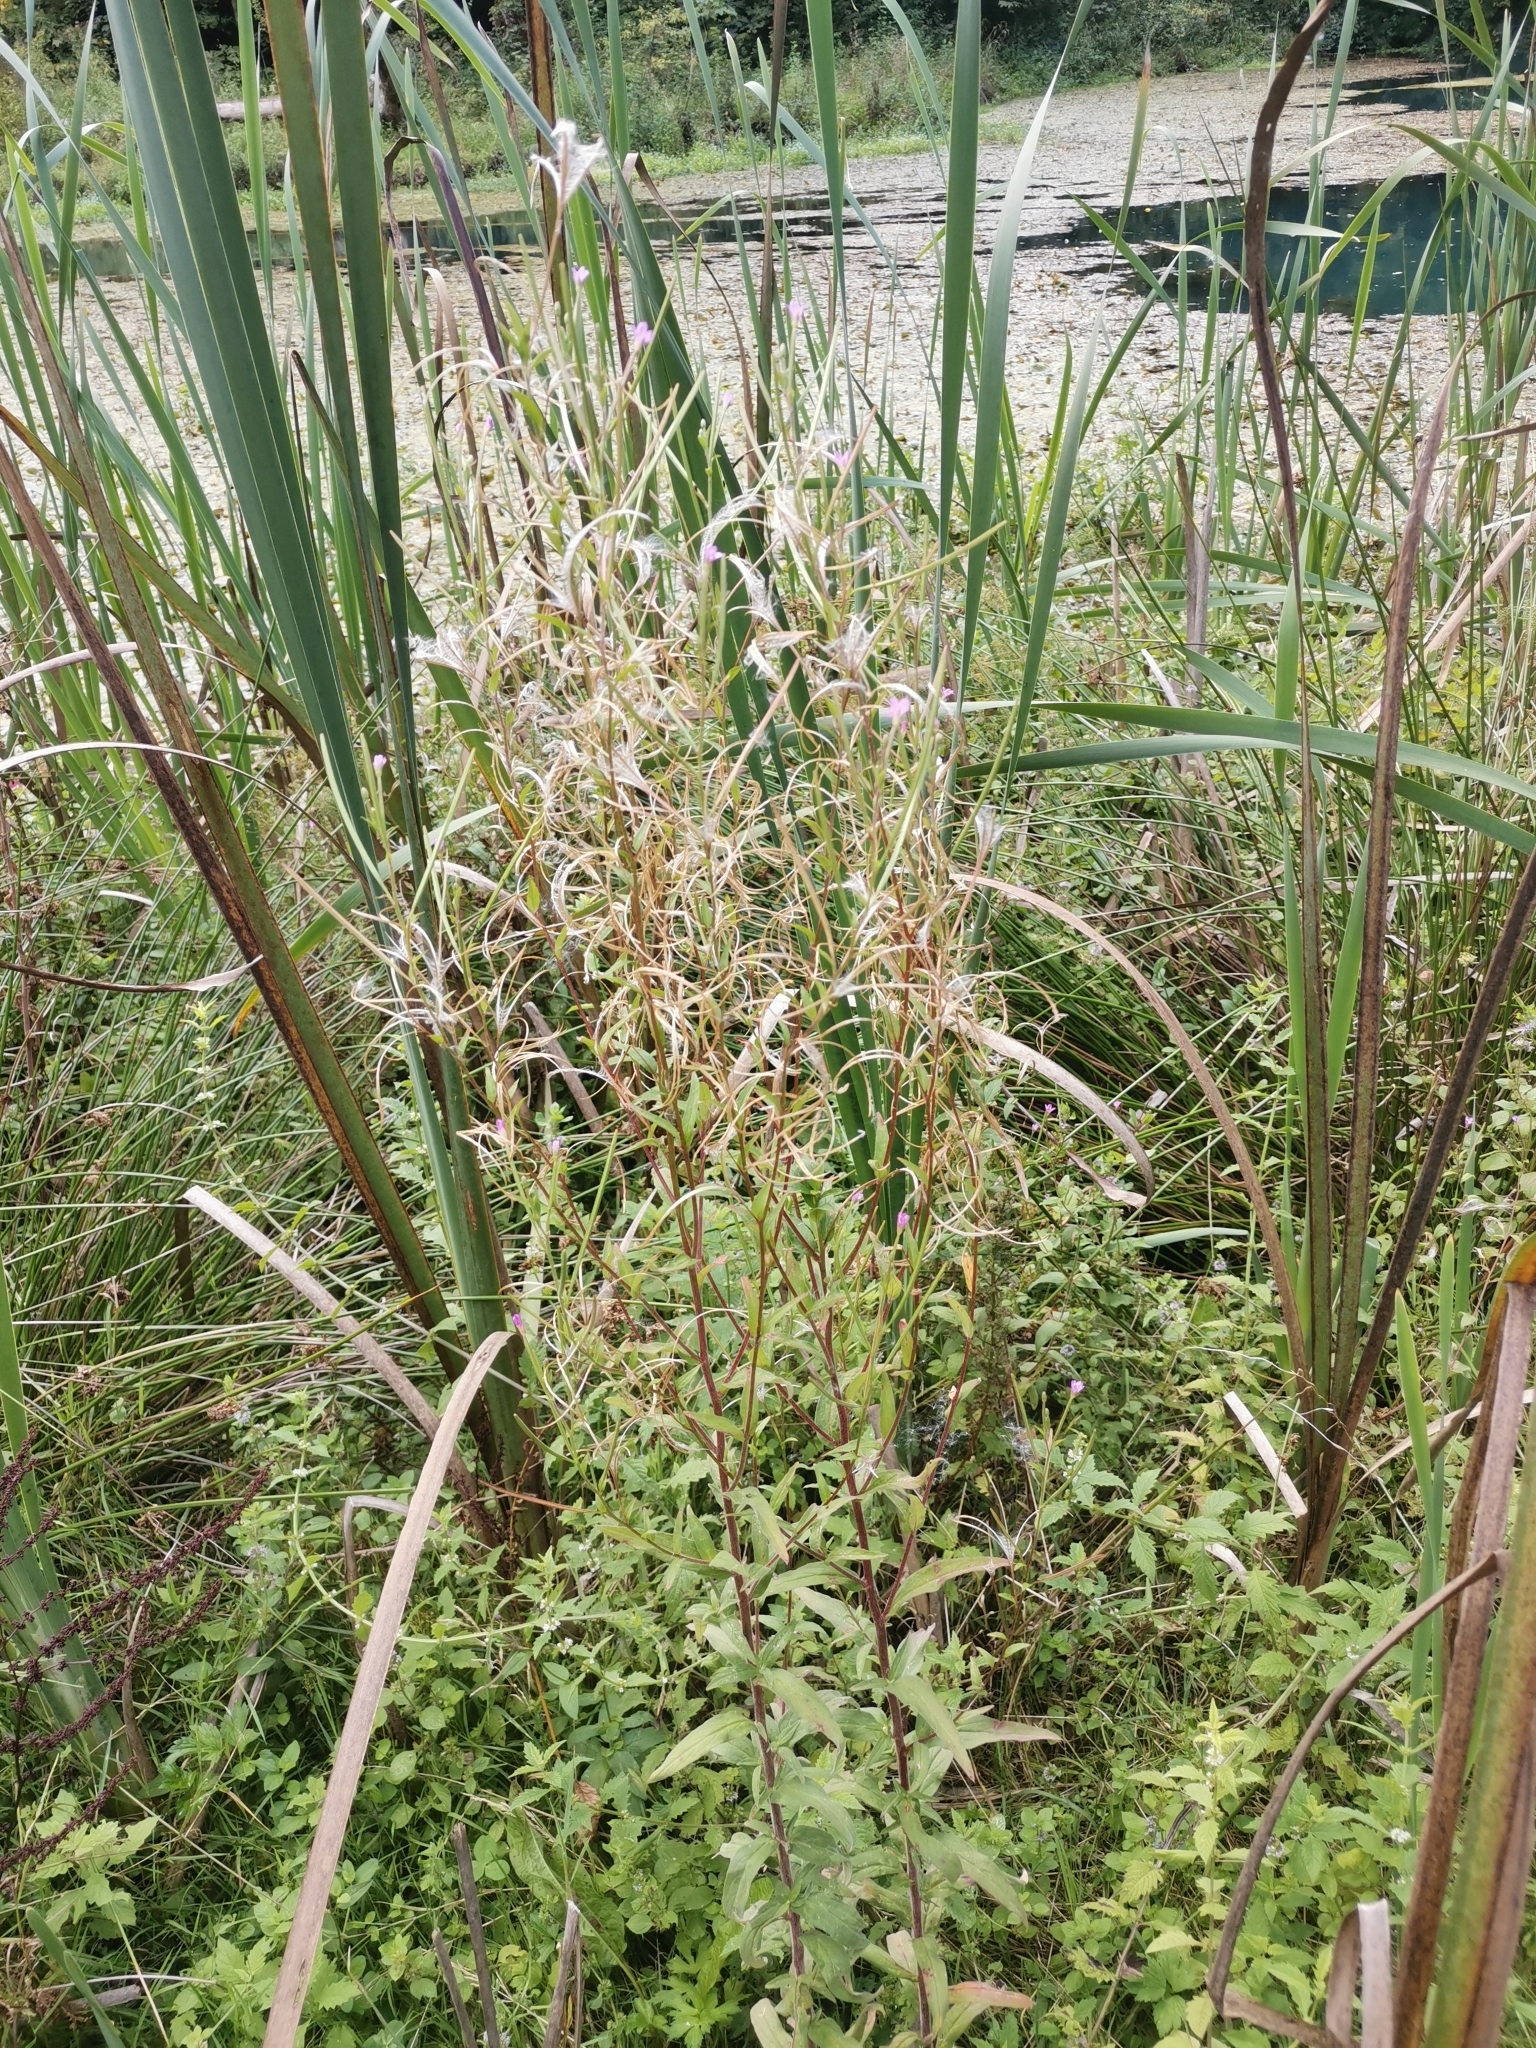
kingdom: Plantae
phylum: Tracheophyta
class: Magnoliopsida
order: Myrtales
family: Onagraceae
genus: Epilobium
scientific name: Epilobium parviflorum
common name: Hoary willowherb
